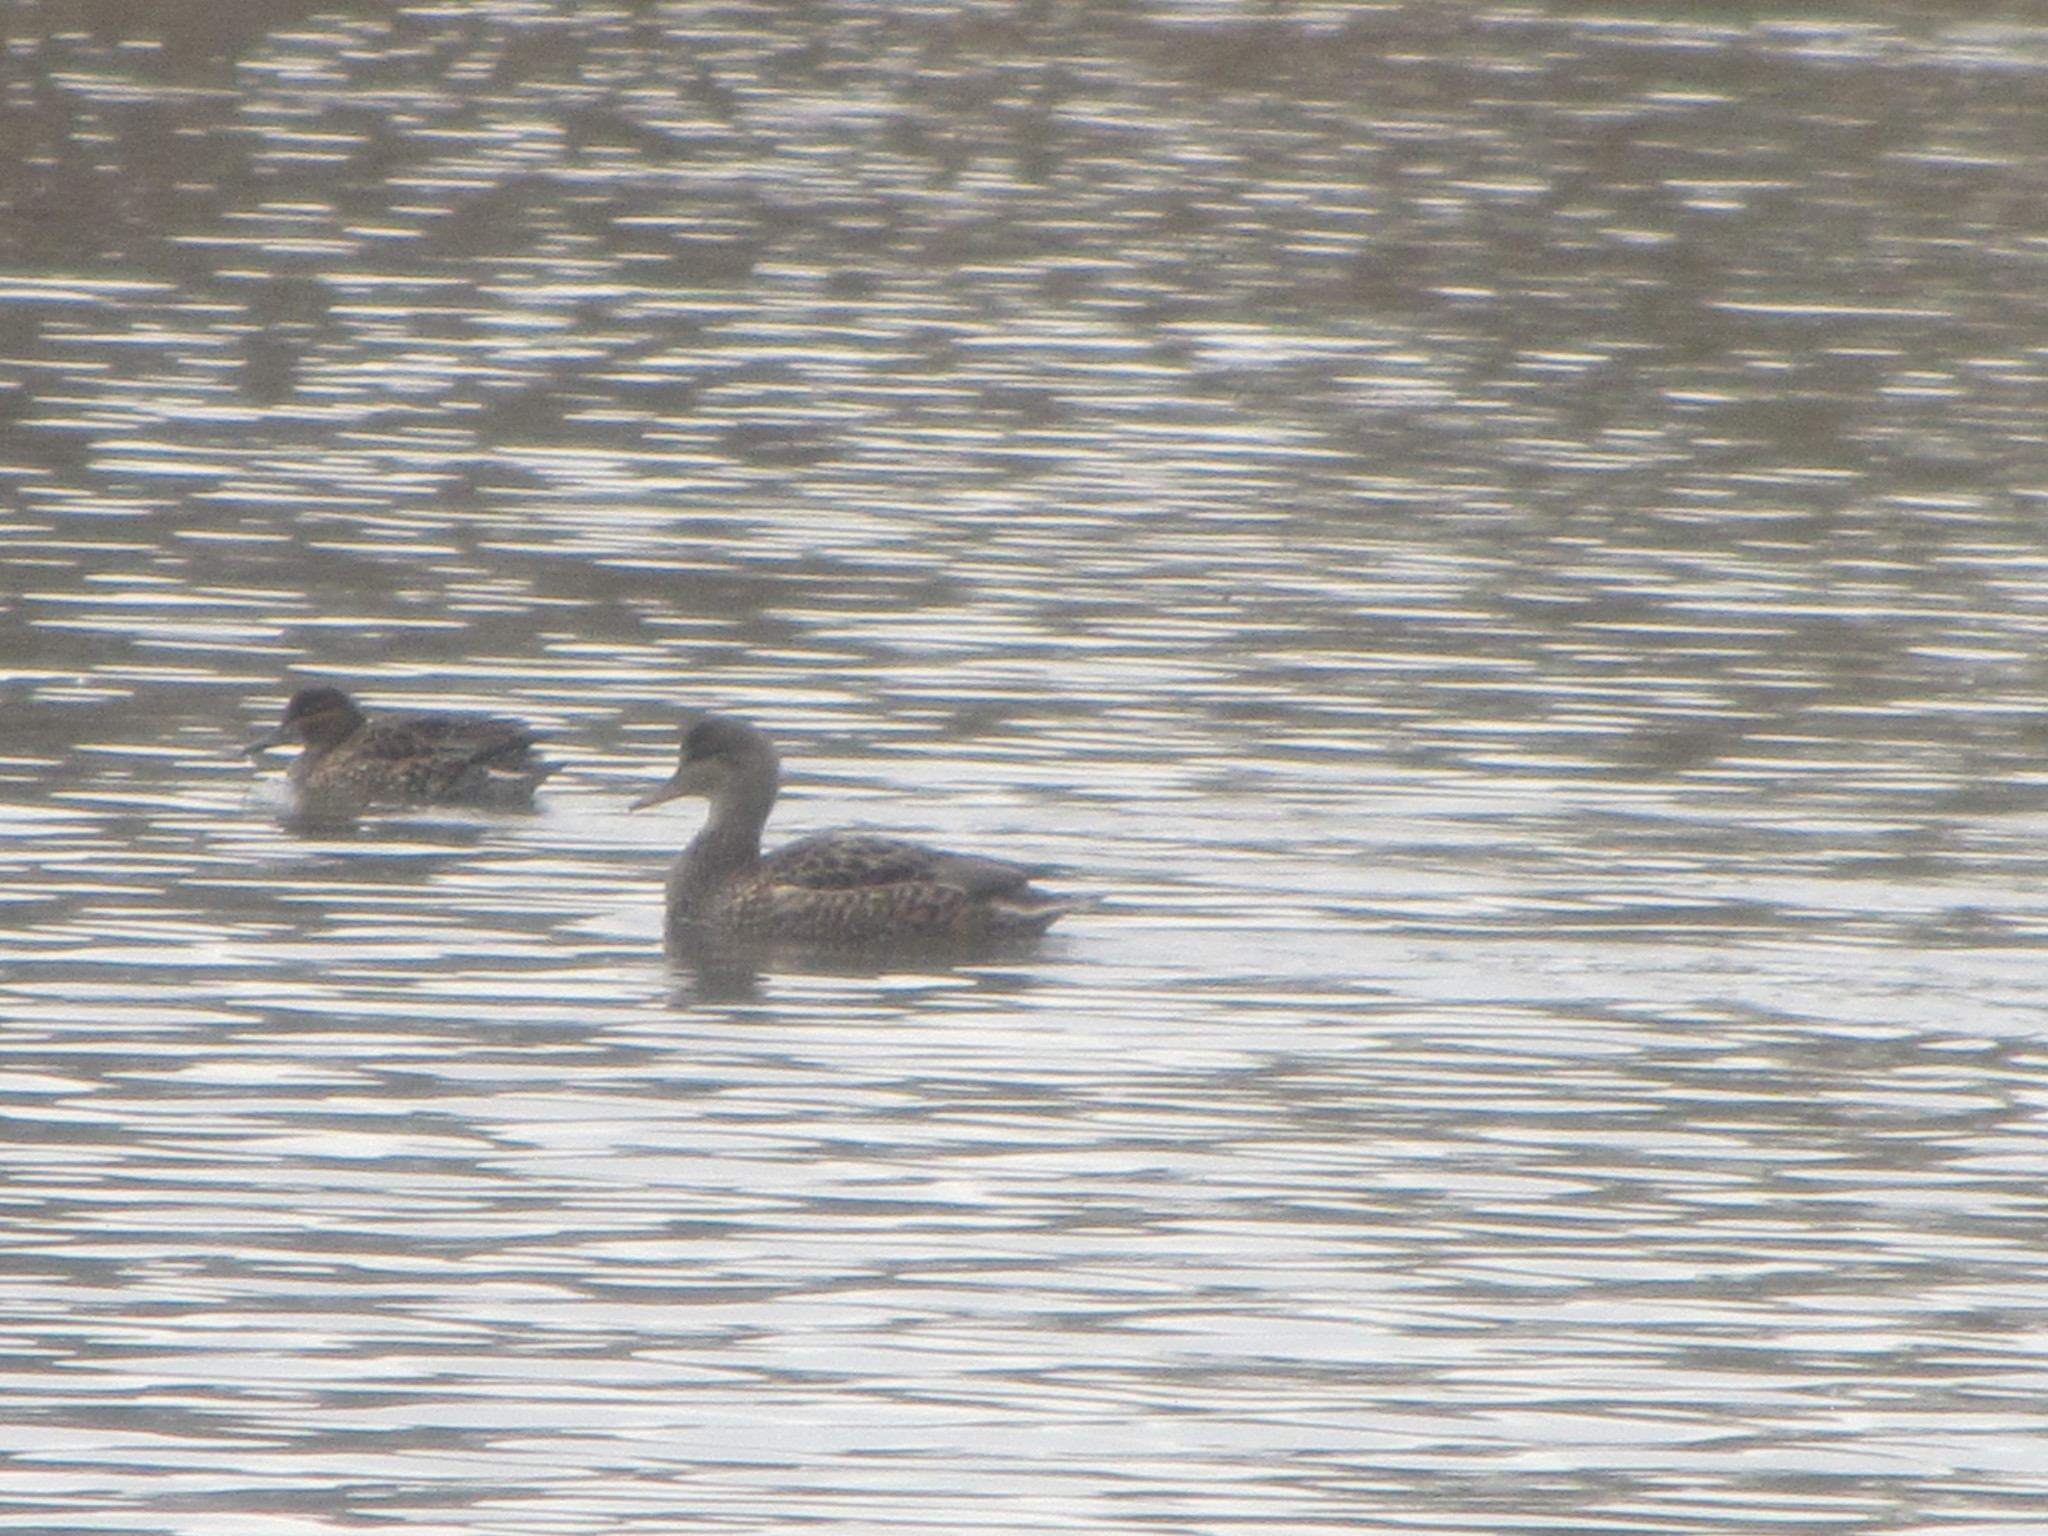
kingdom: Animalia
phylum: Chordata
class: Aves
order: Anseriformes
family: Anatidae
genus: Mareca
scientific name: Mareca strepera
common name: Gadwall
